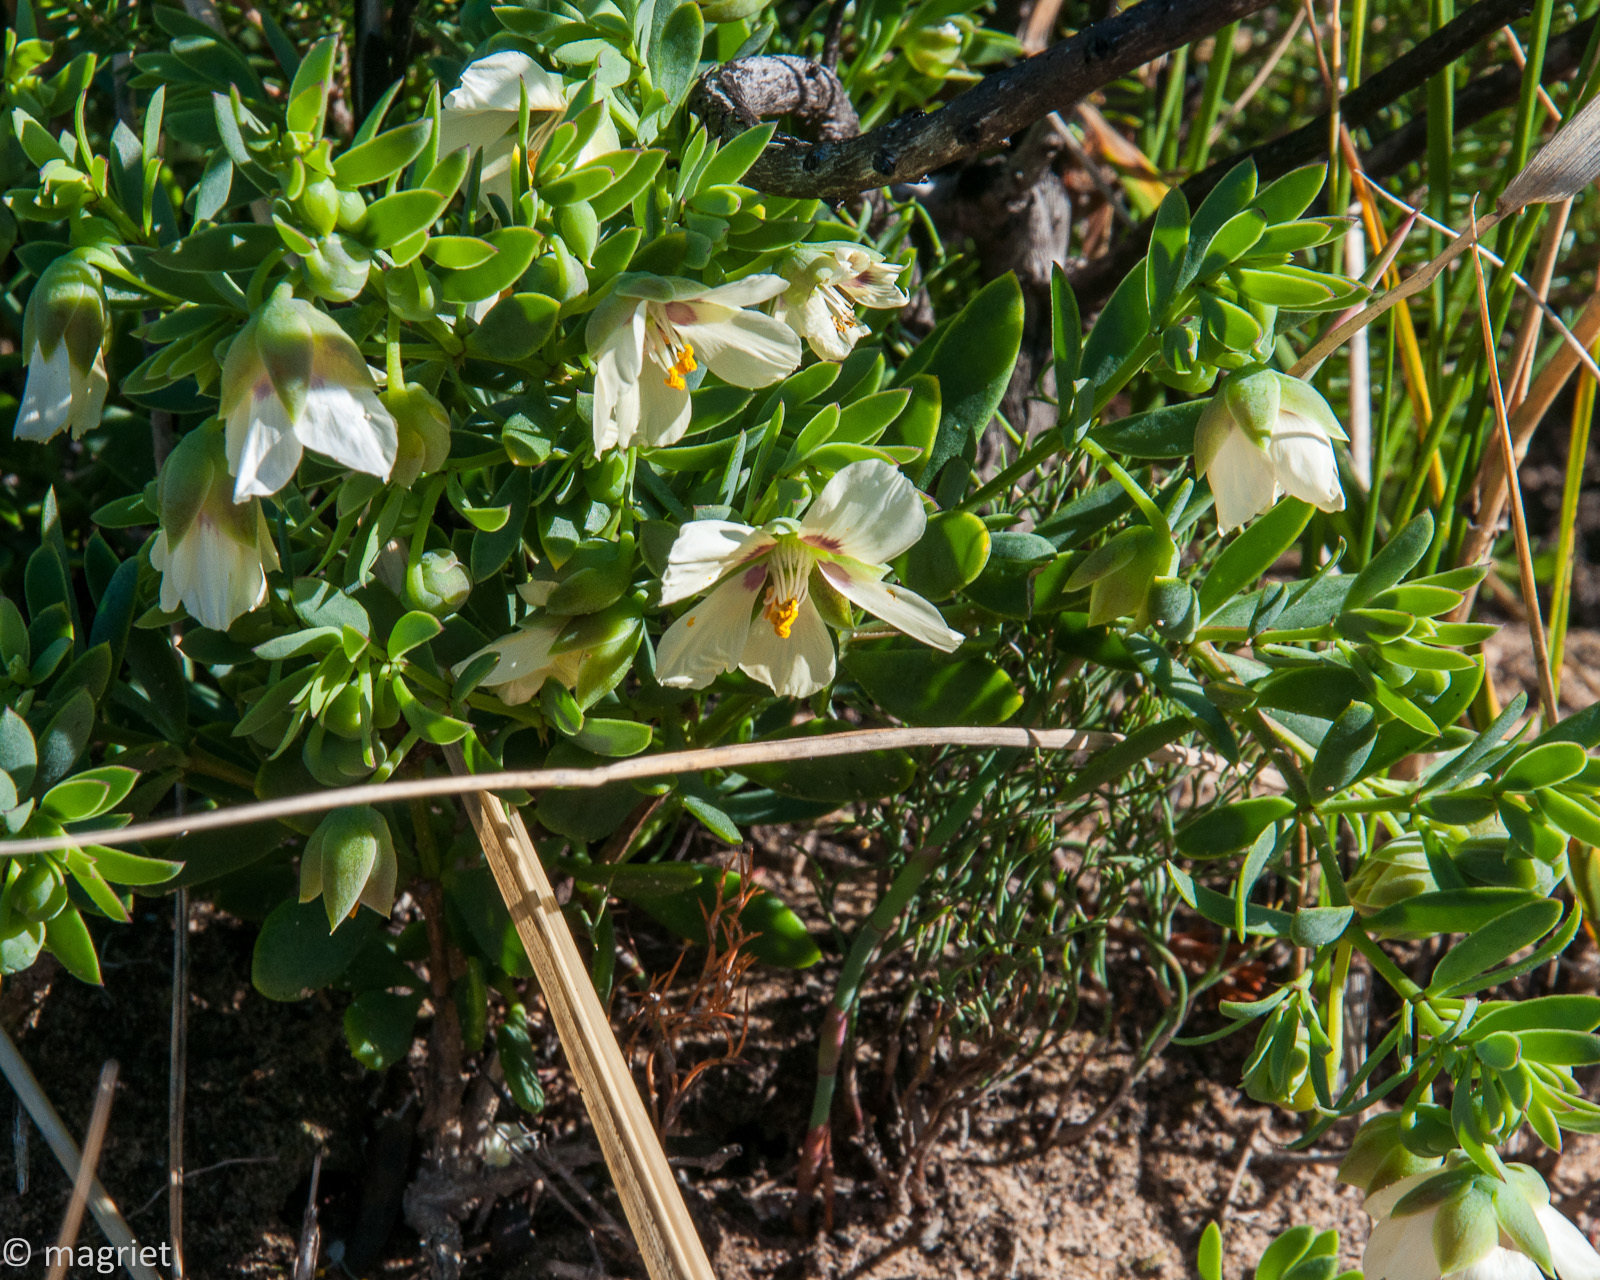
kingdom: Plantae
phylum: Tracheophyta
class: Magnoliopsida
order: Zygophyllales
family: Zygophyllaceae
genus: Roepera
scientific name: Roepera fulva
